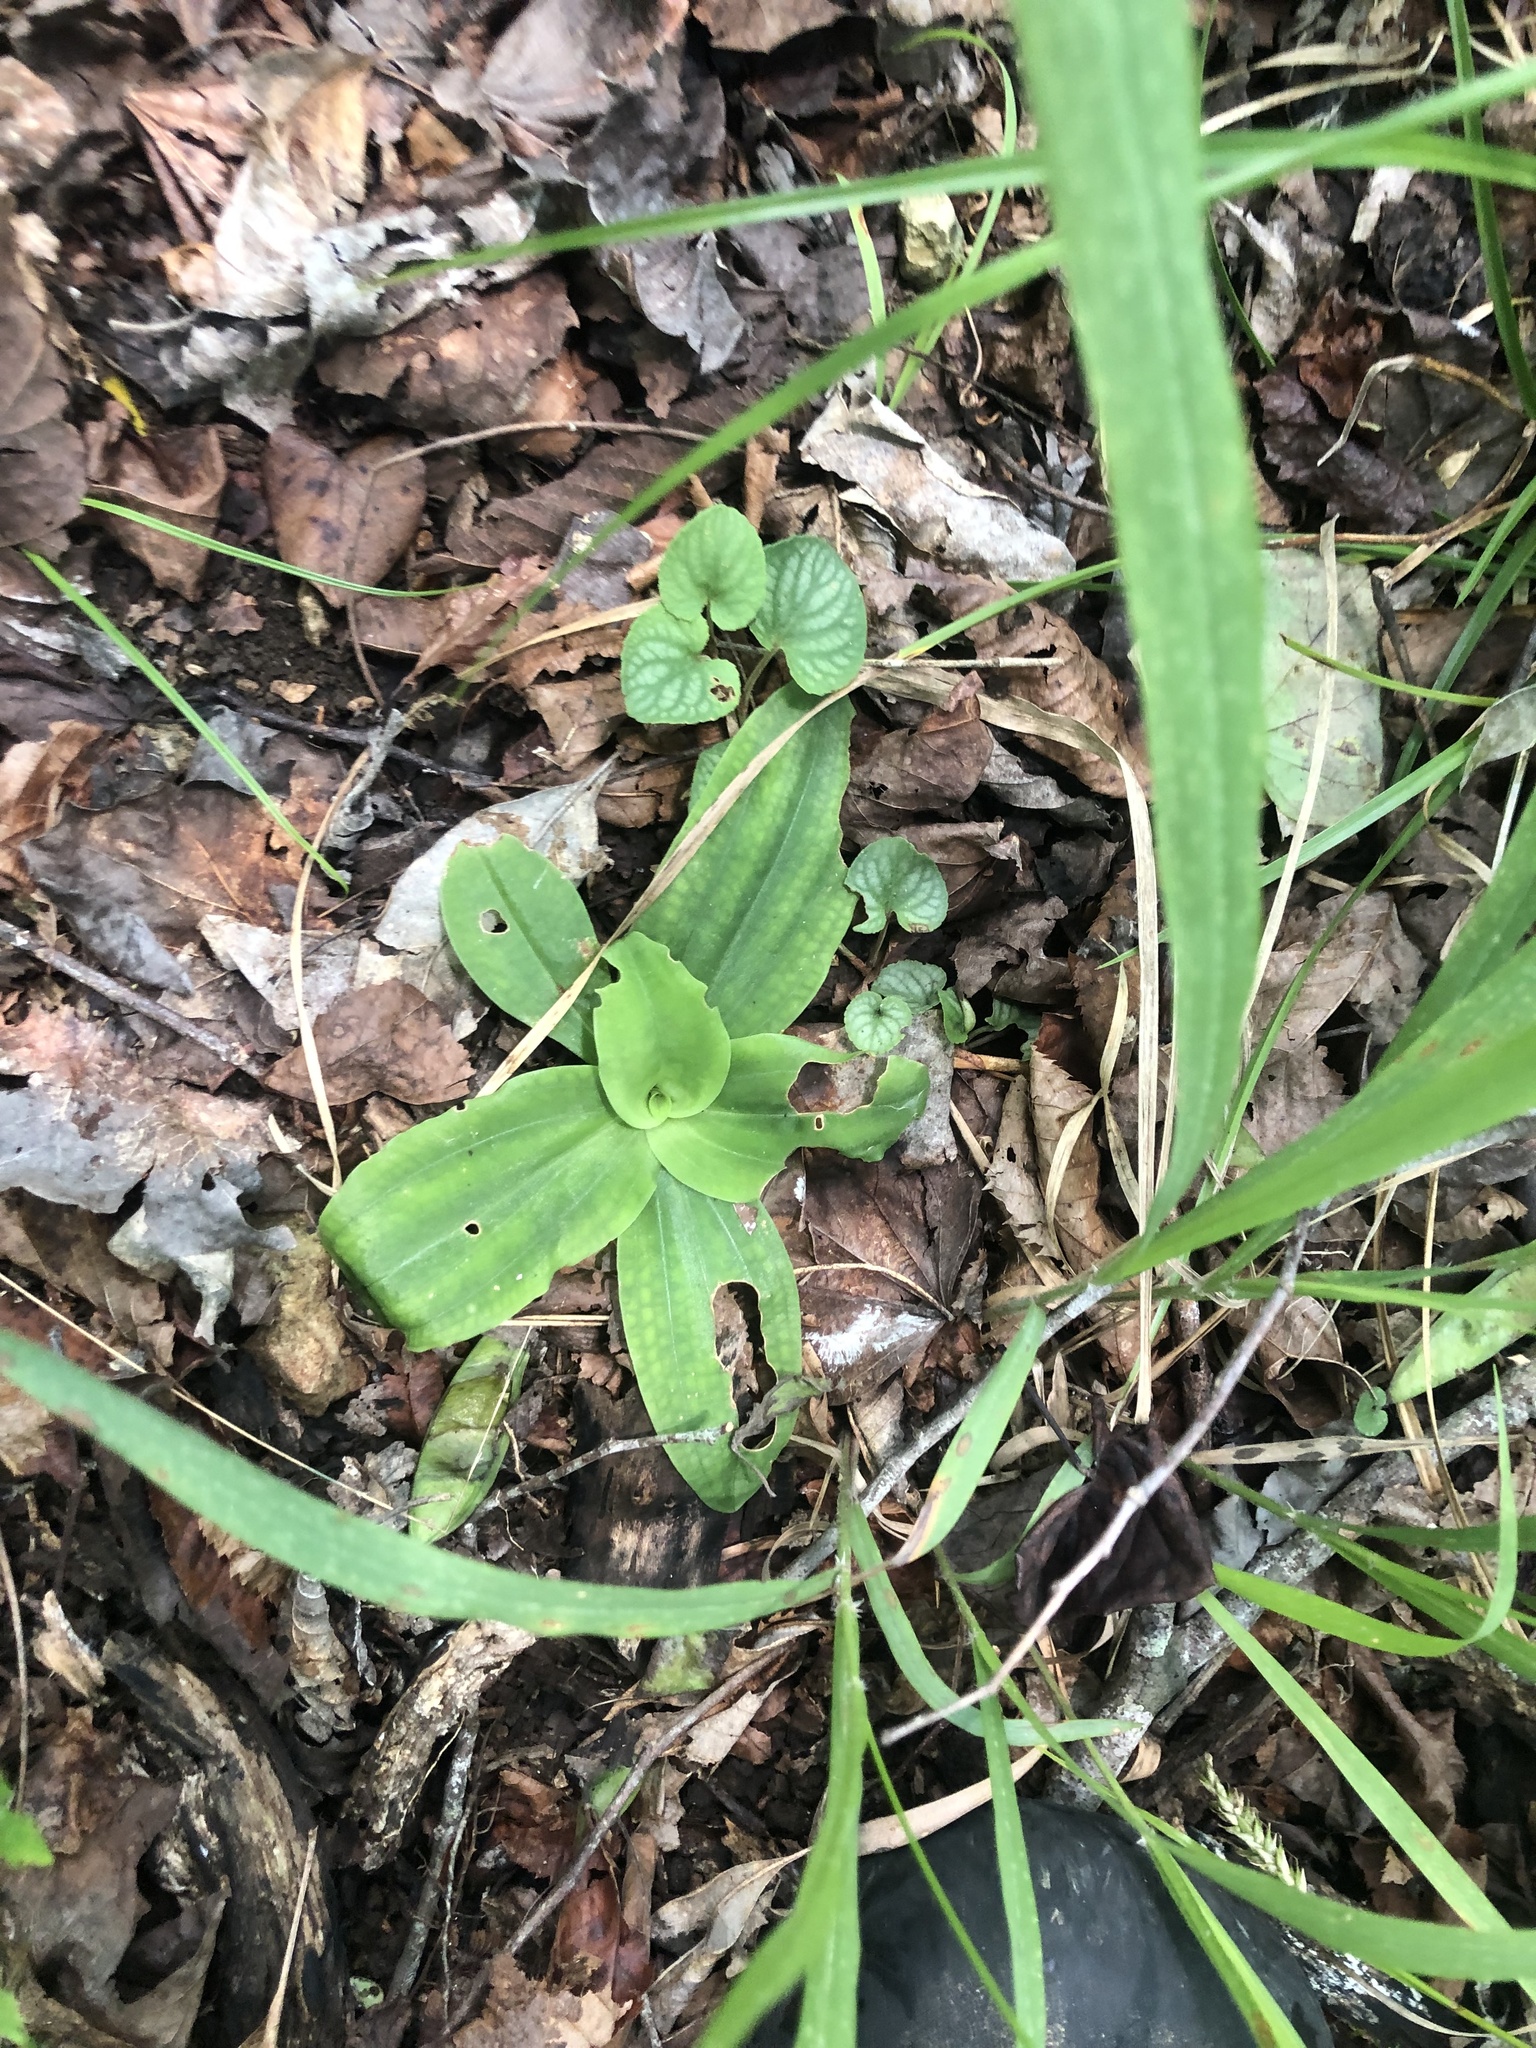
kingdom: Plantae
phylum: Tracheophyta
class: Liliopsida
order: Asparagales
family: Orchidaceae
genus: Ponthieva
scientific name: Ponthieva racemosa
